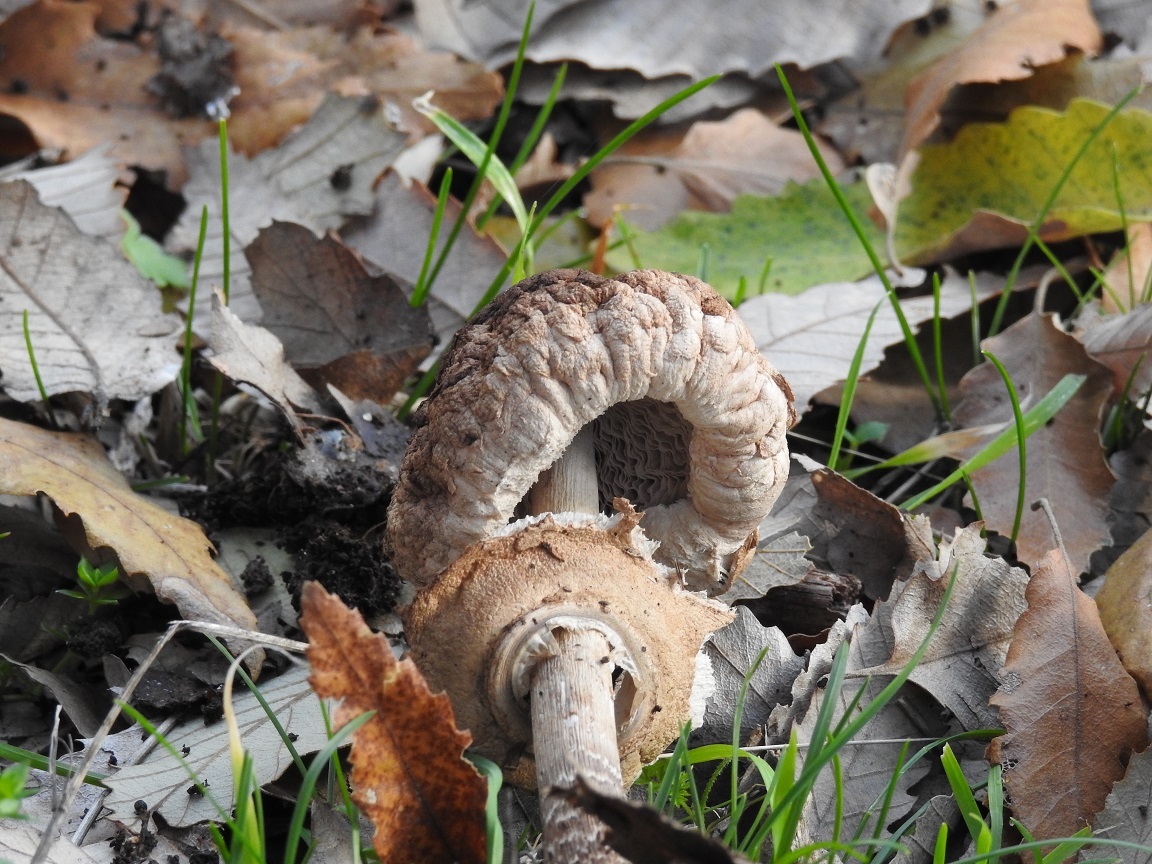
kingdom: Fungi
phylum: Basidiomycota
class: Agaricomycetes
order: Agaricales
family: Agaricaceae
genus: Macrolepiota
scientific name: Macrolepiota procera
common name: Parasol
